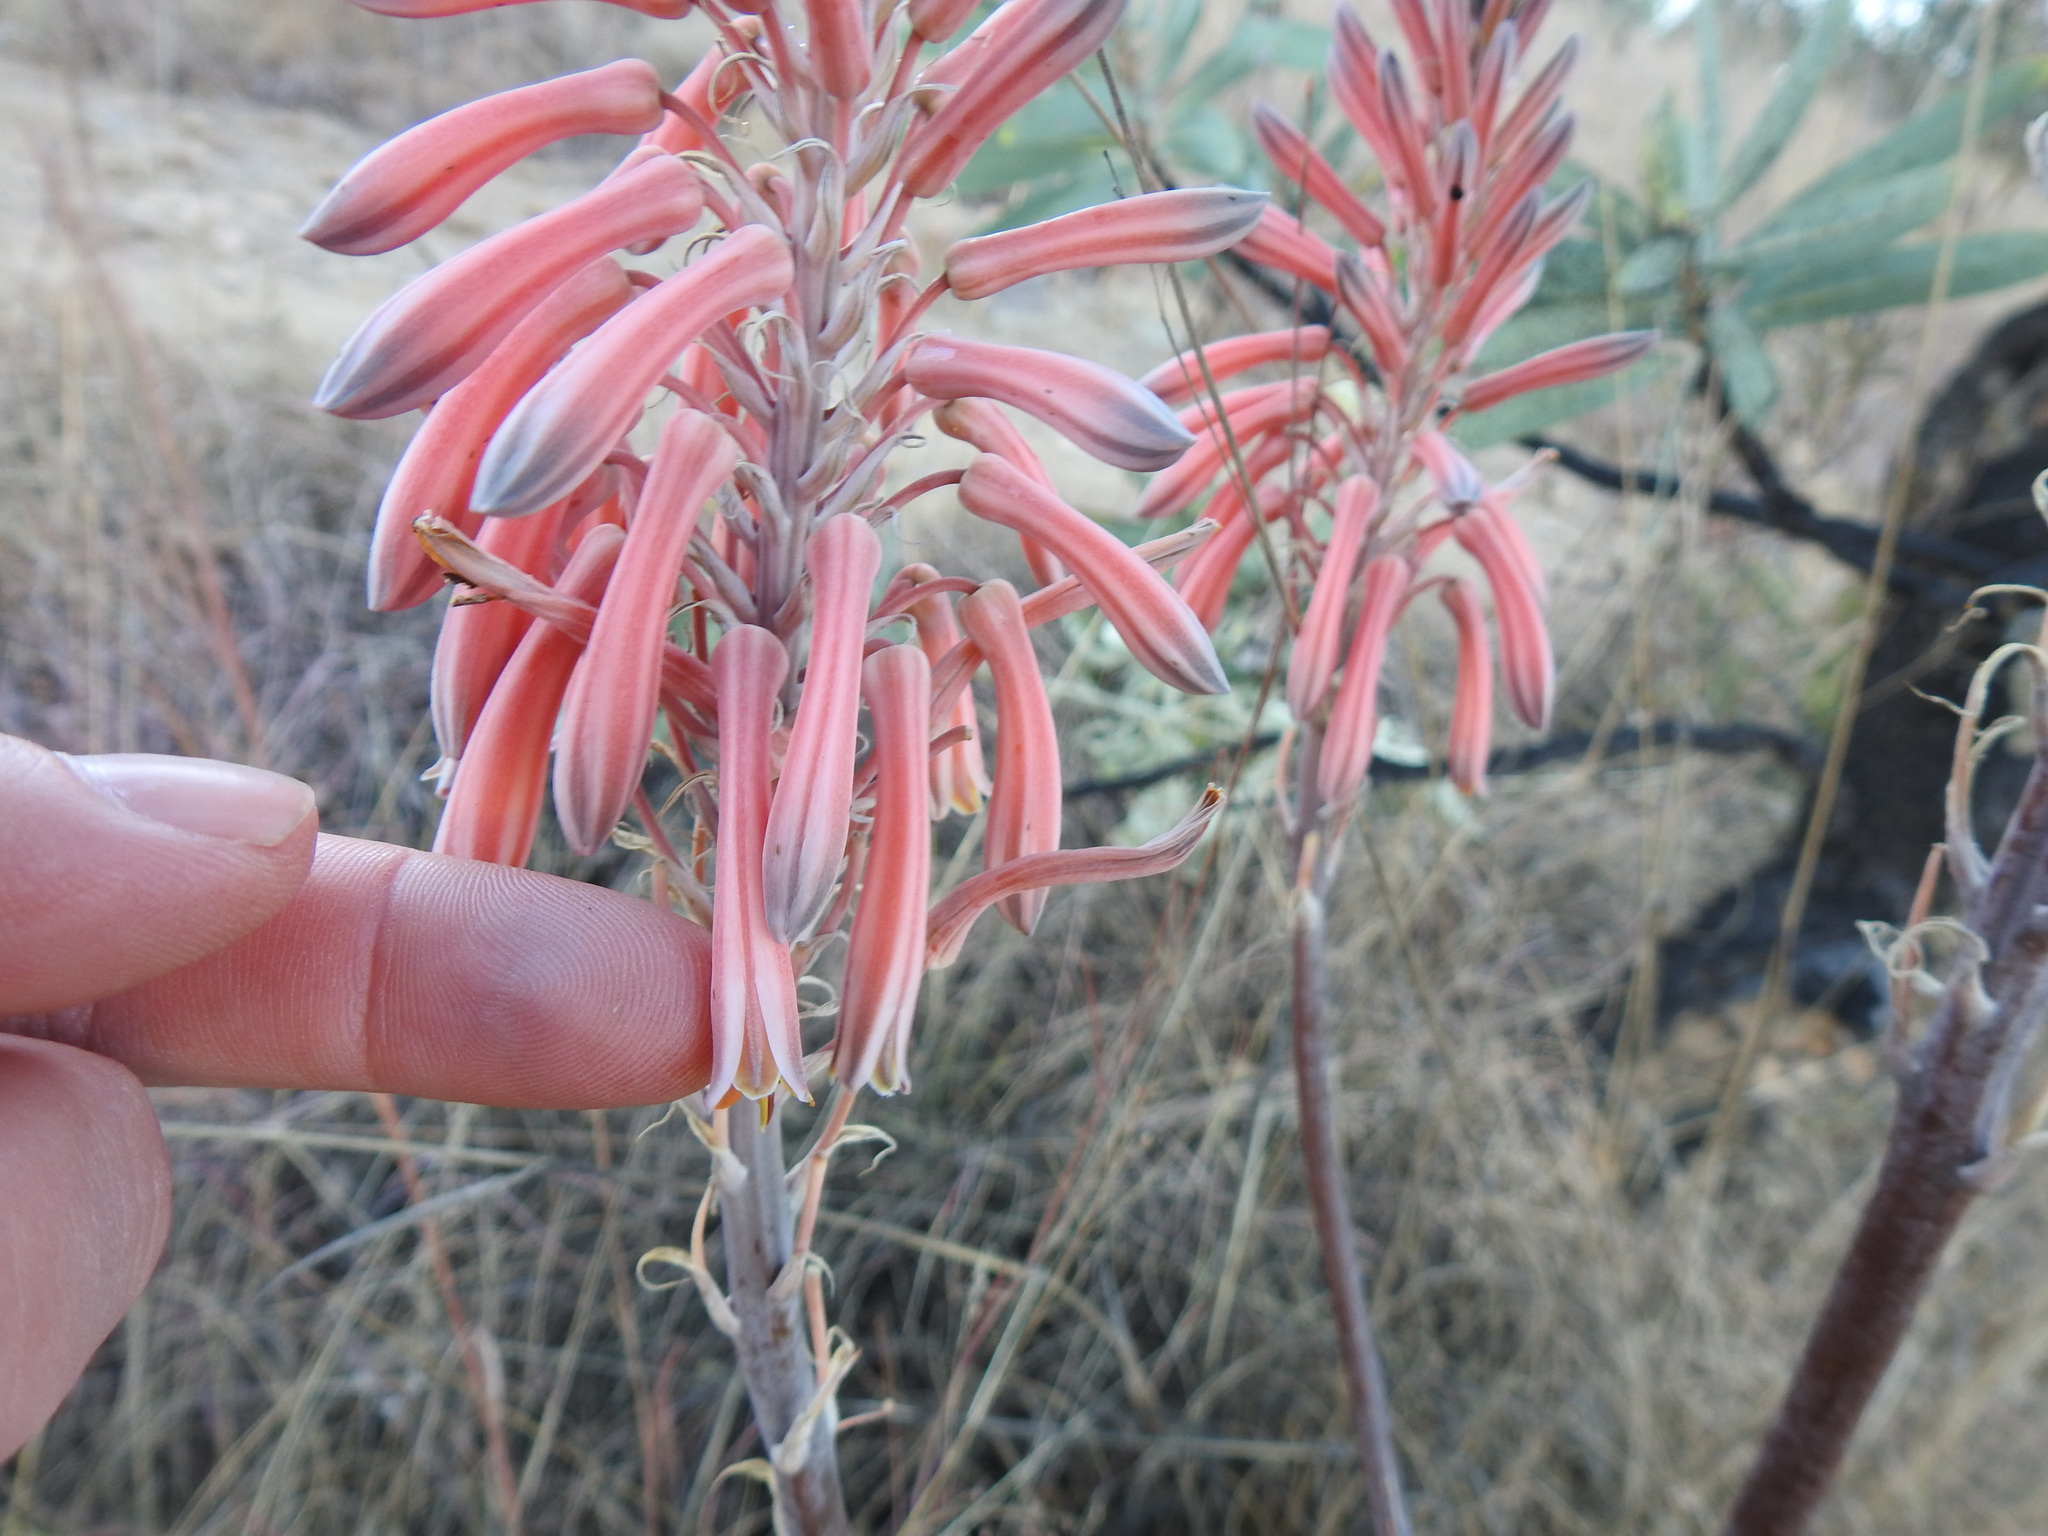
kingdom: Plantae
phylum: Tracheophyta
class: Liliopsida
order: Asparagales
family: Asphodelaceae
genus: Aloe
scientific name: Aloe greatheadii
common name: Greathead's aloe
